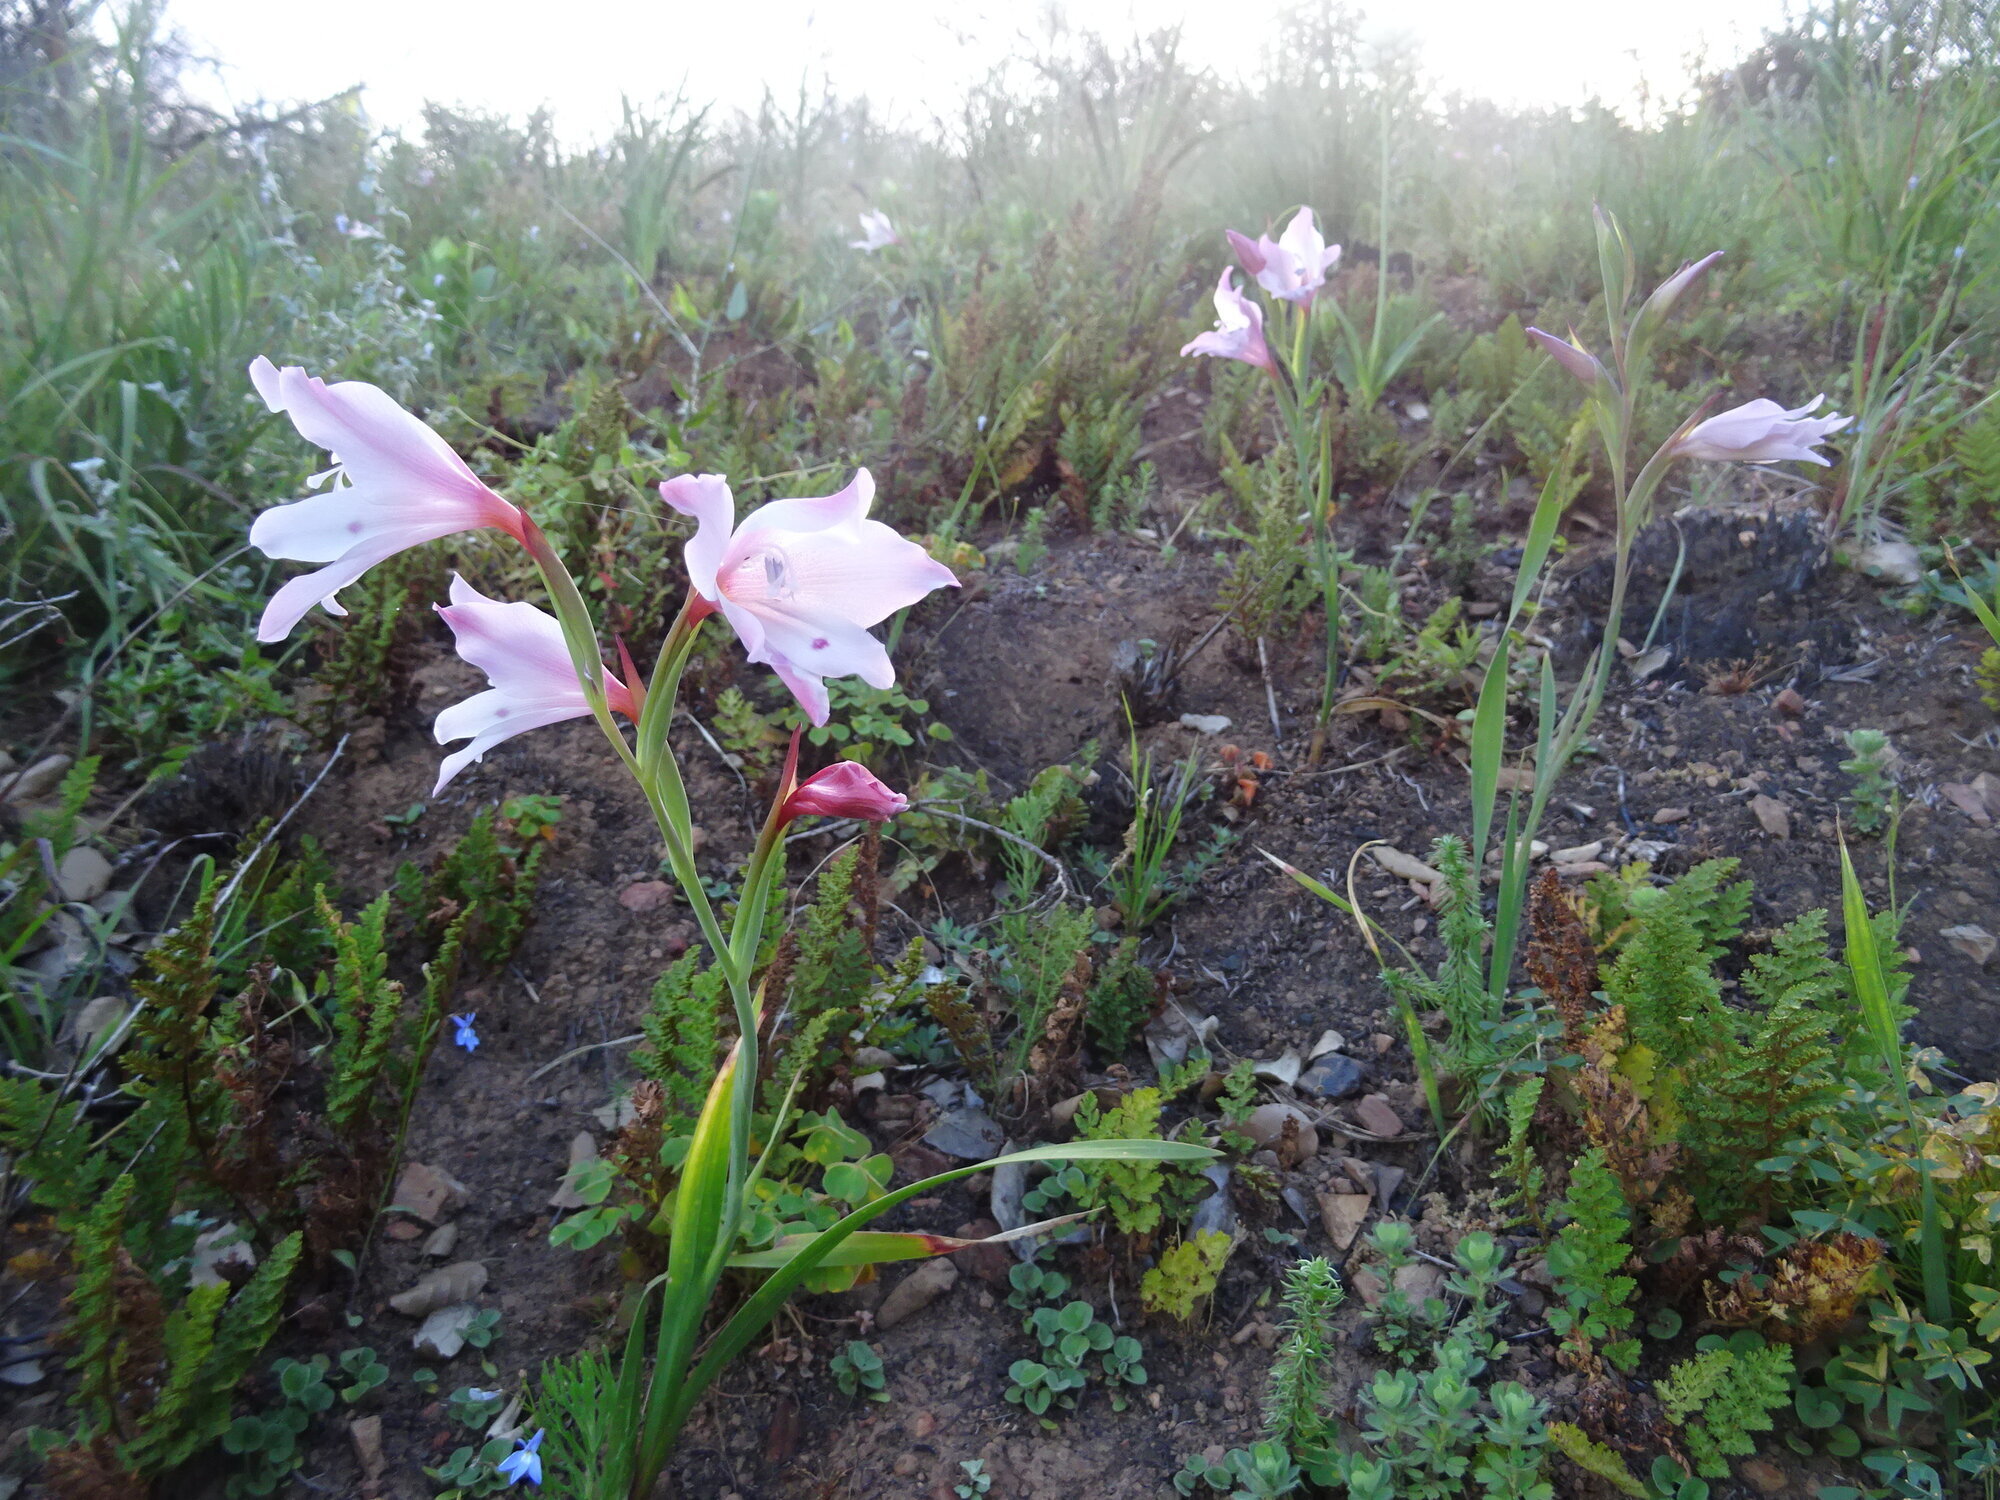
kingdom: Plantae
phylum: Tracheophyta
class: Liliopsida
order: Asparagales
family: Iridaceae
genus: Gladiolus
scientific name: Gladiolus carneus
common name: Painted-lady
